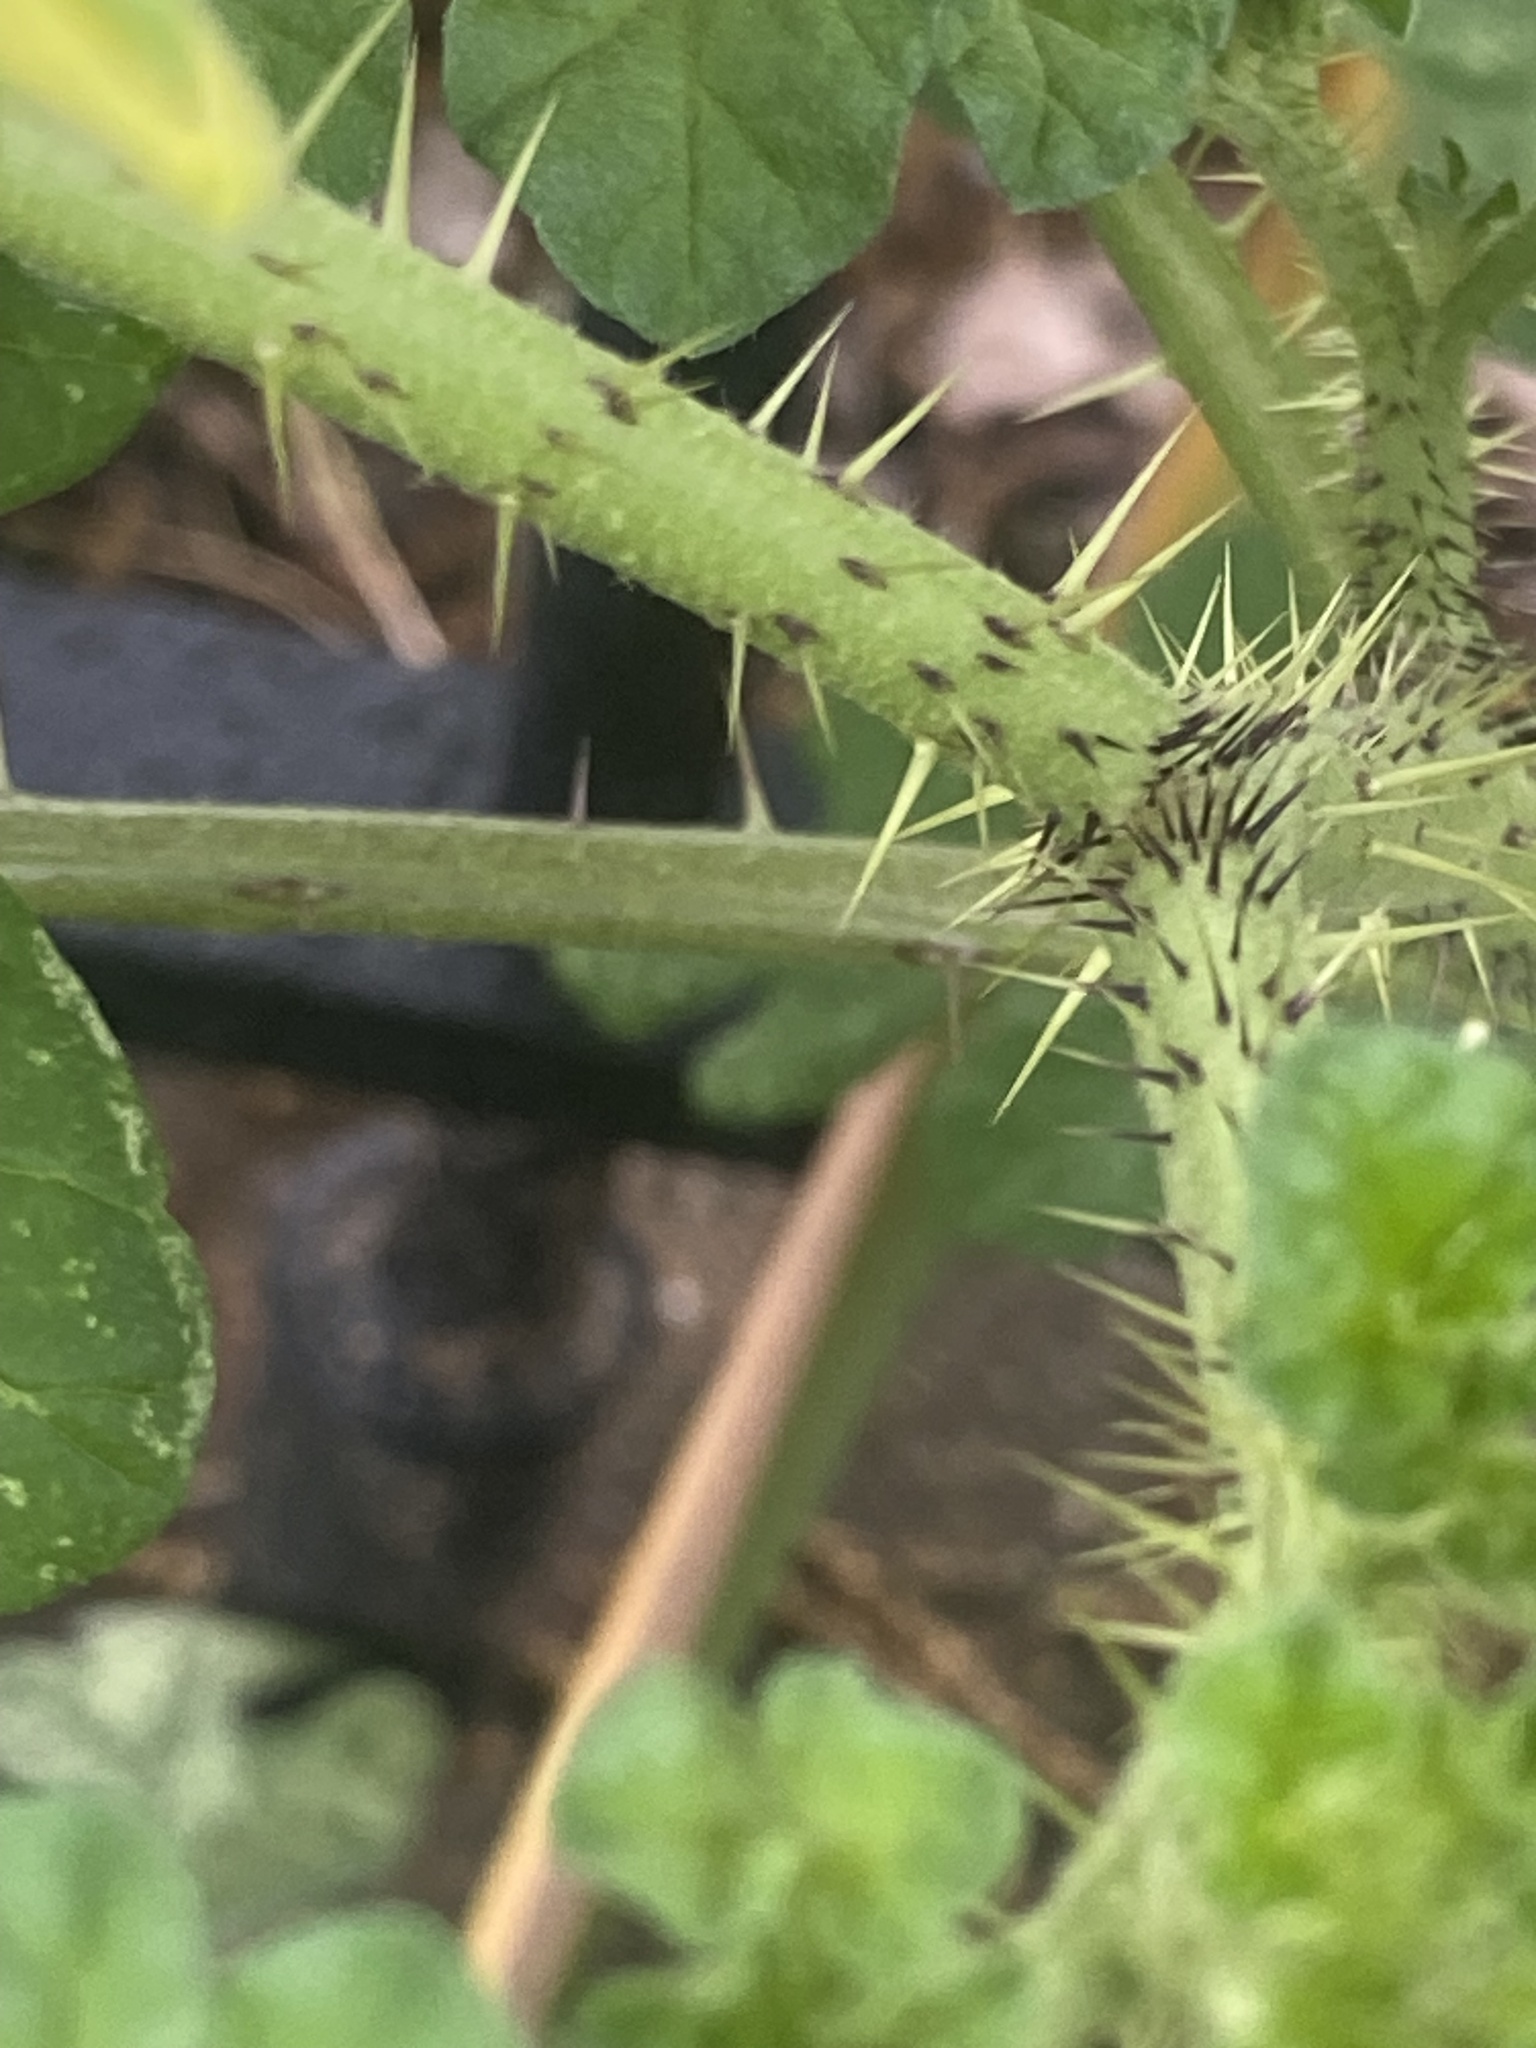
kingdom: Plantae
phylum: Tracheophyta
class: Magnoliopsida
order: Solanales
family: Solanaceae
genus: Solanum
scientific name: Solanum angustifolium
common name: Buffalobur nightshade
